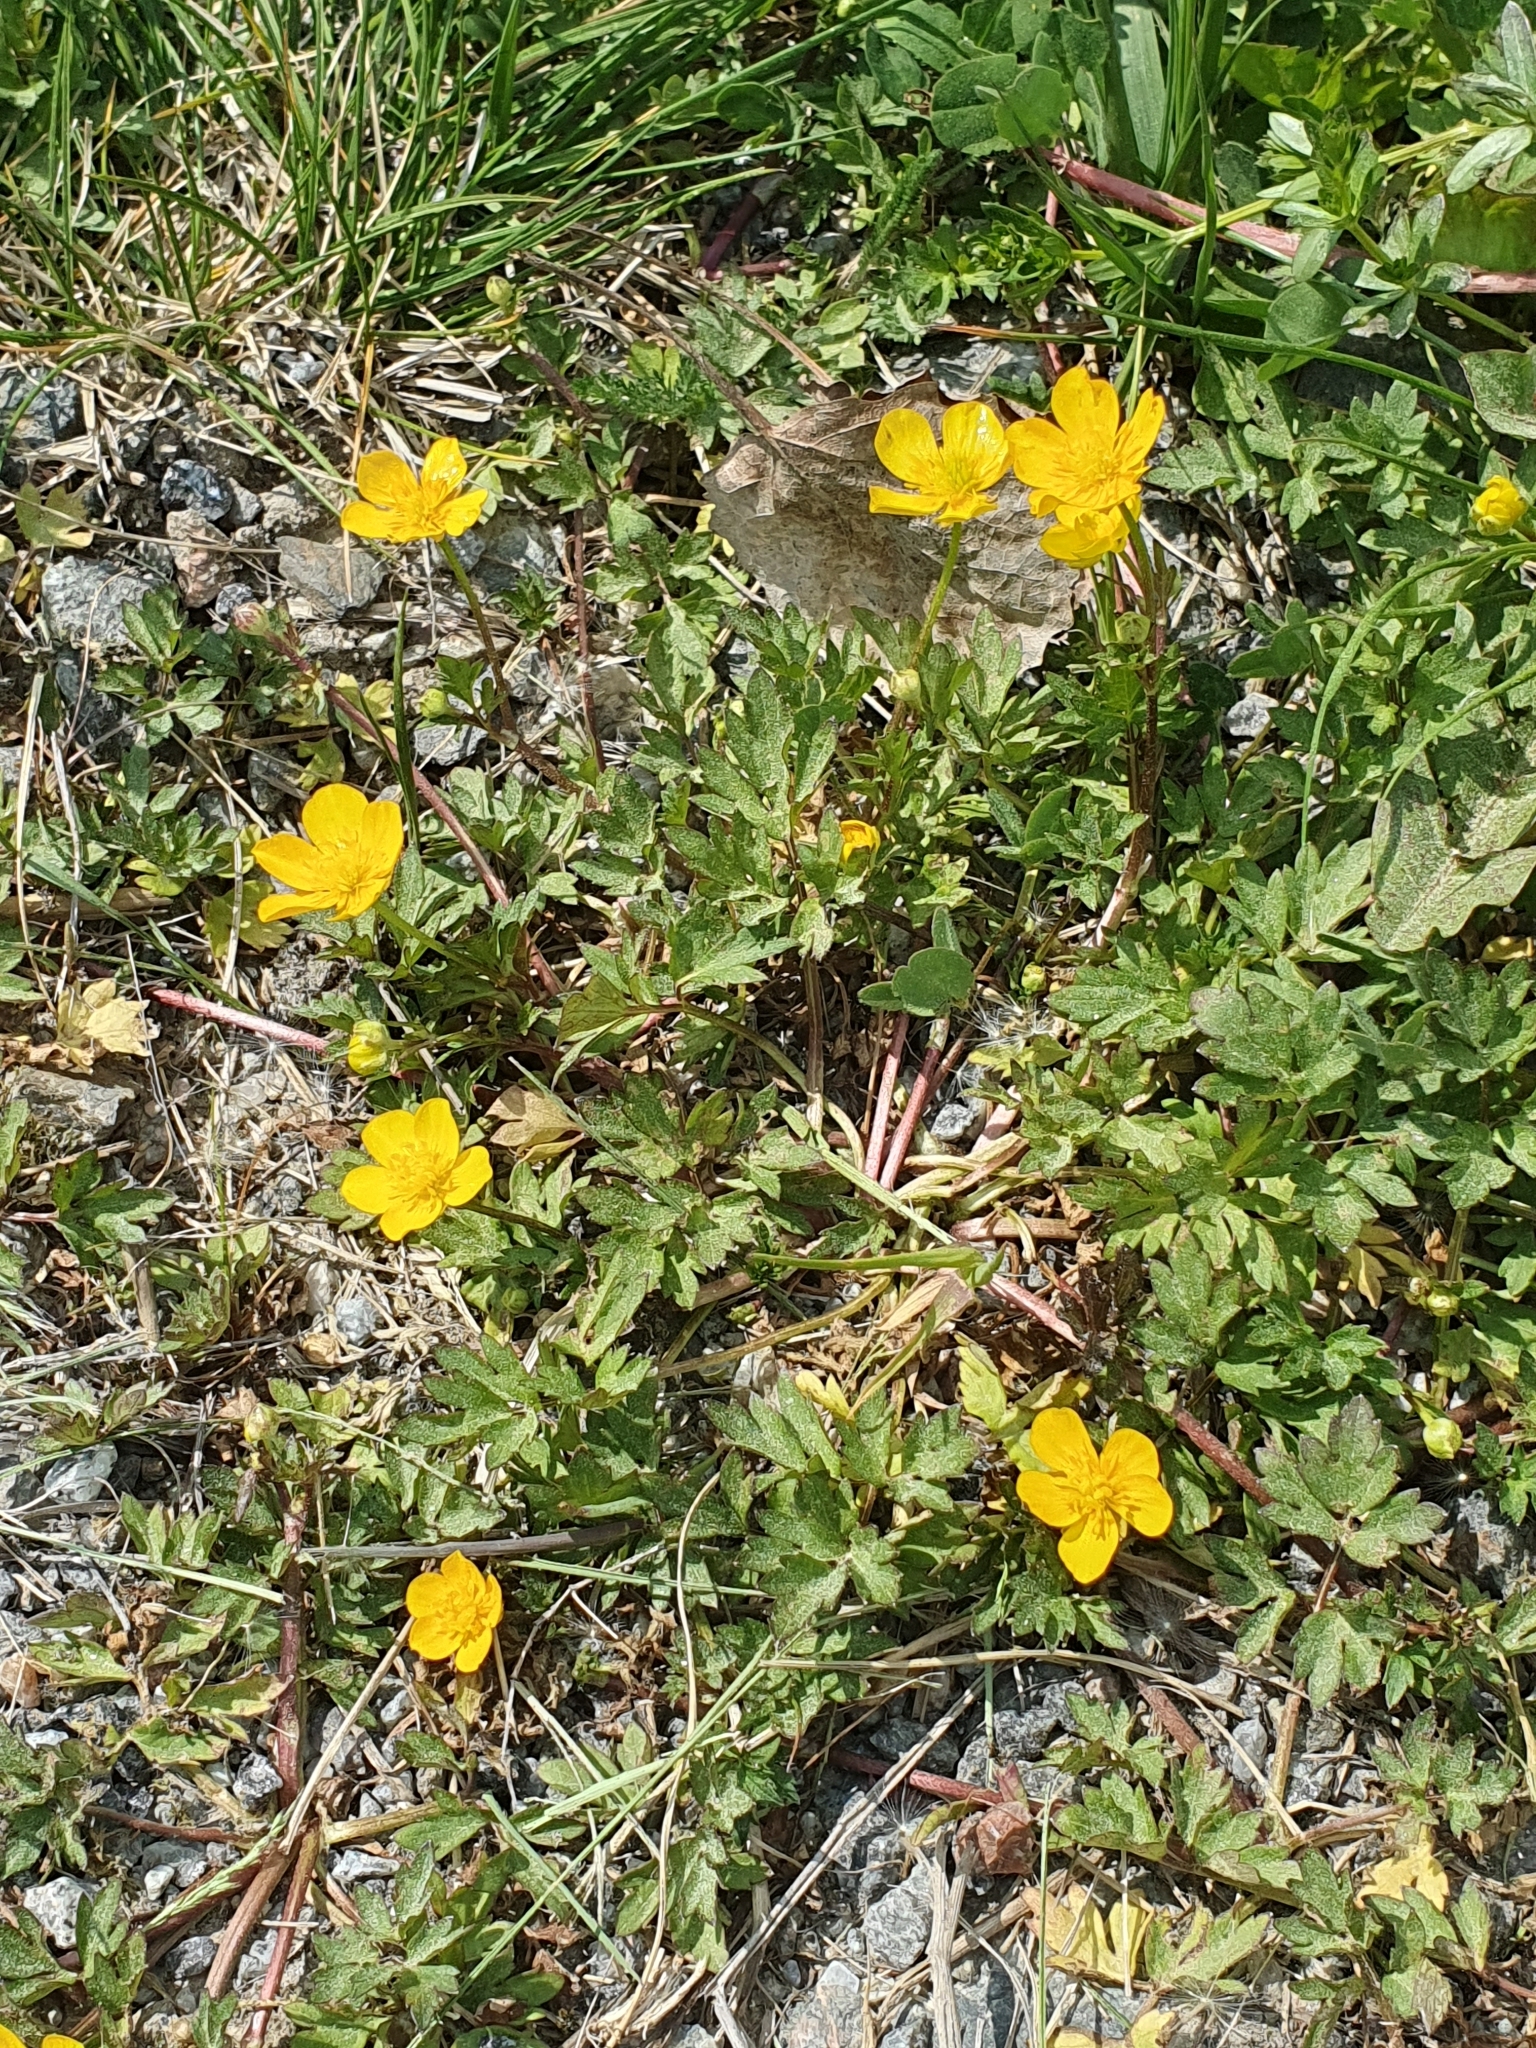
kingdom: Plantae
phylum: Tracheophyta
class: Magnoliopsida
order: Ranunculales
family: Ranunculaceae
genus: Ranunculus
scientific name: Ranunculus repens
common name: Creeping buttercup
